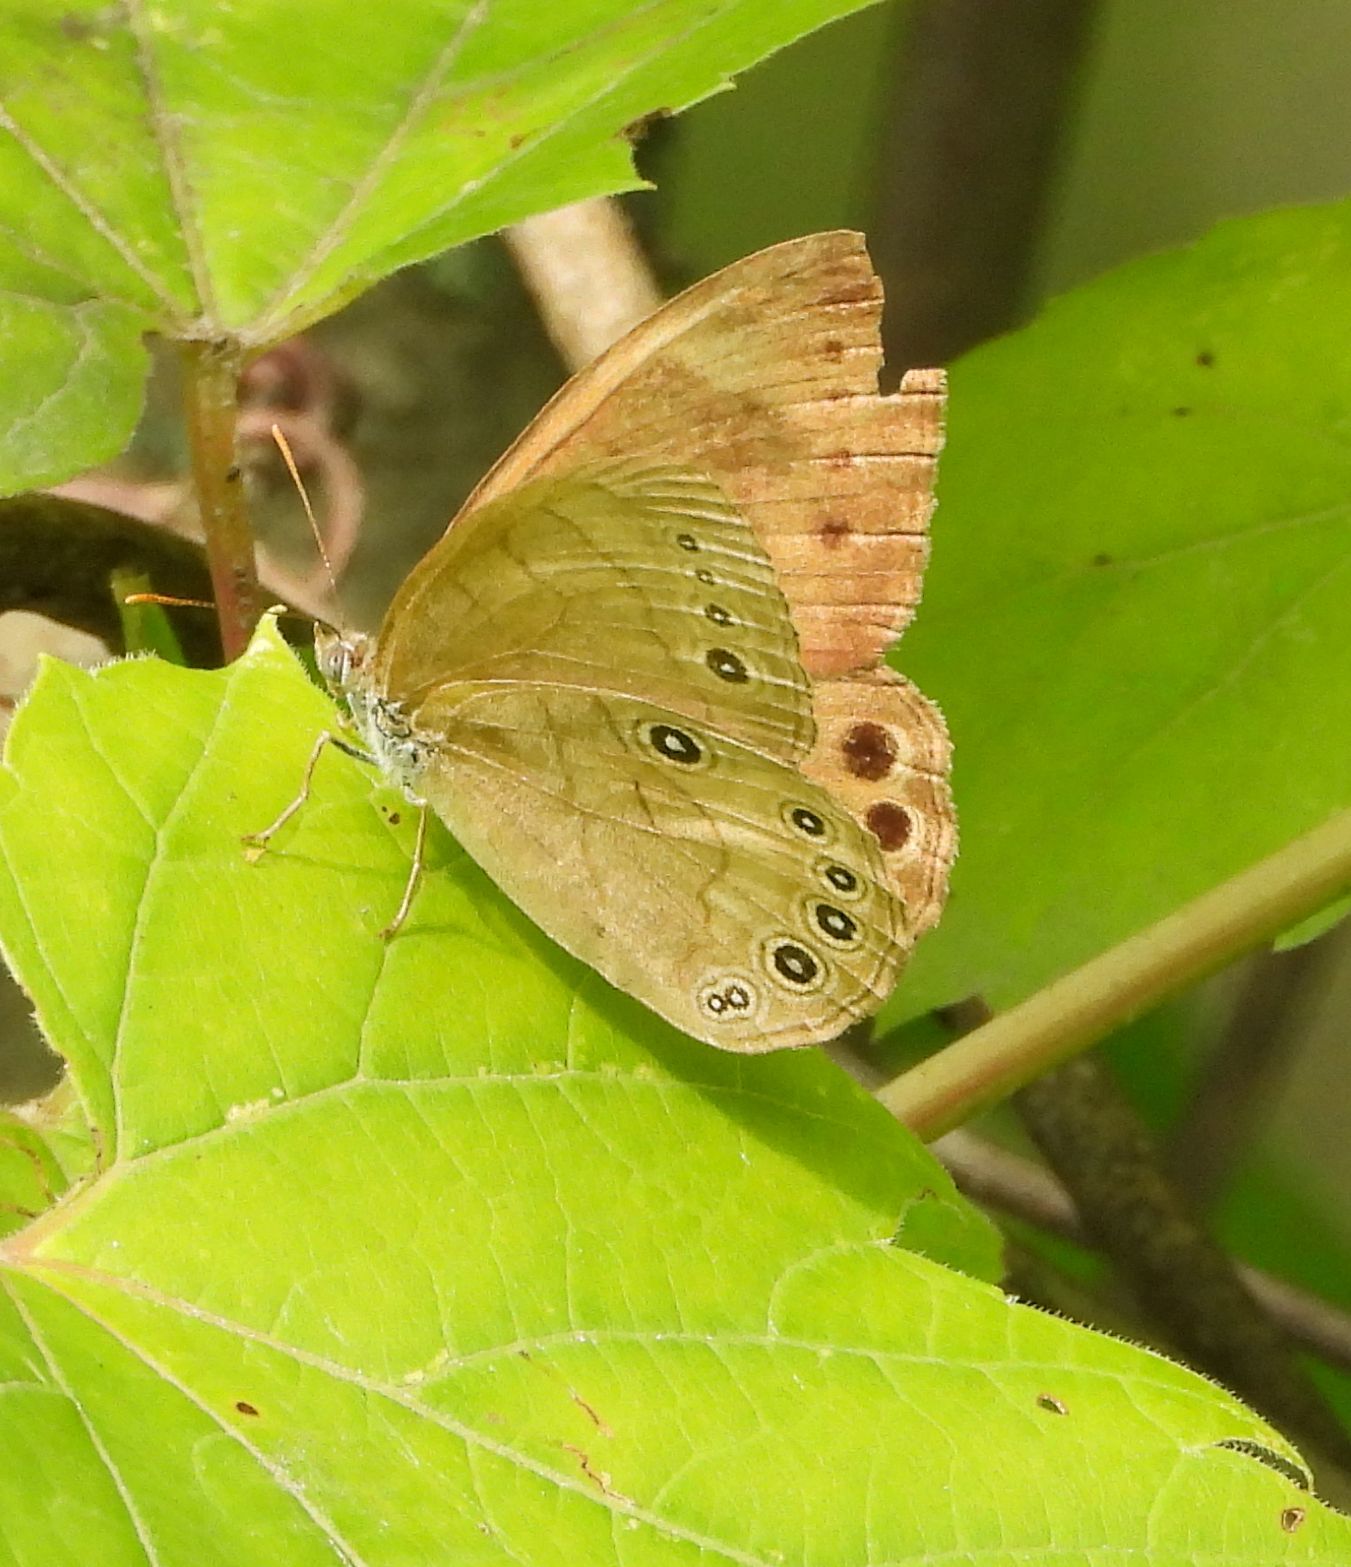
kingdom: Animalia
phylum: Arthropoda
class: Insecta
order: Lepidoptera
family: Nymphalidae
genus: Lethe
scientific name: Lethe eurydice
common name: Eyed brown
